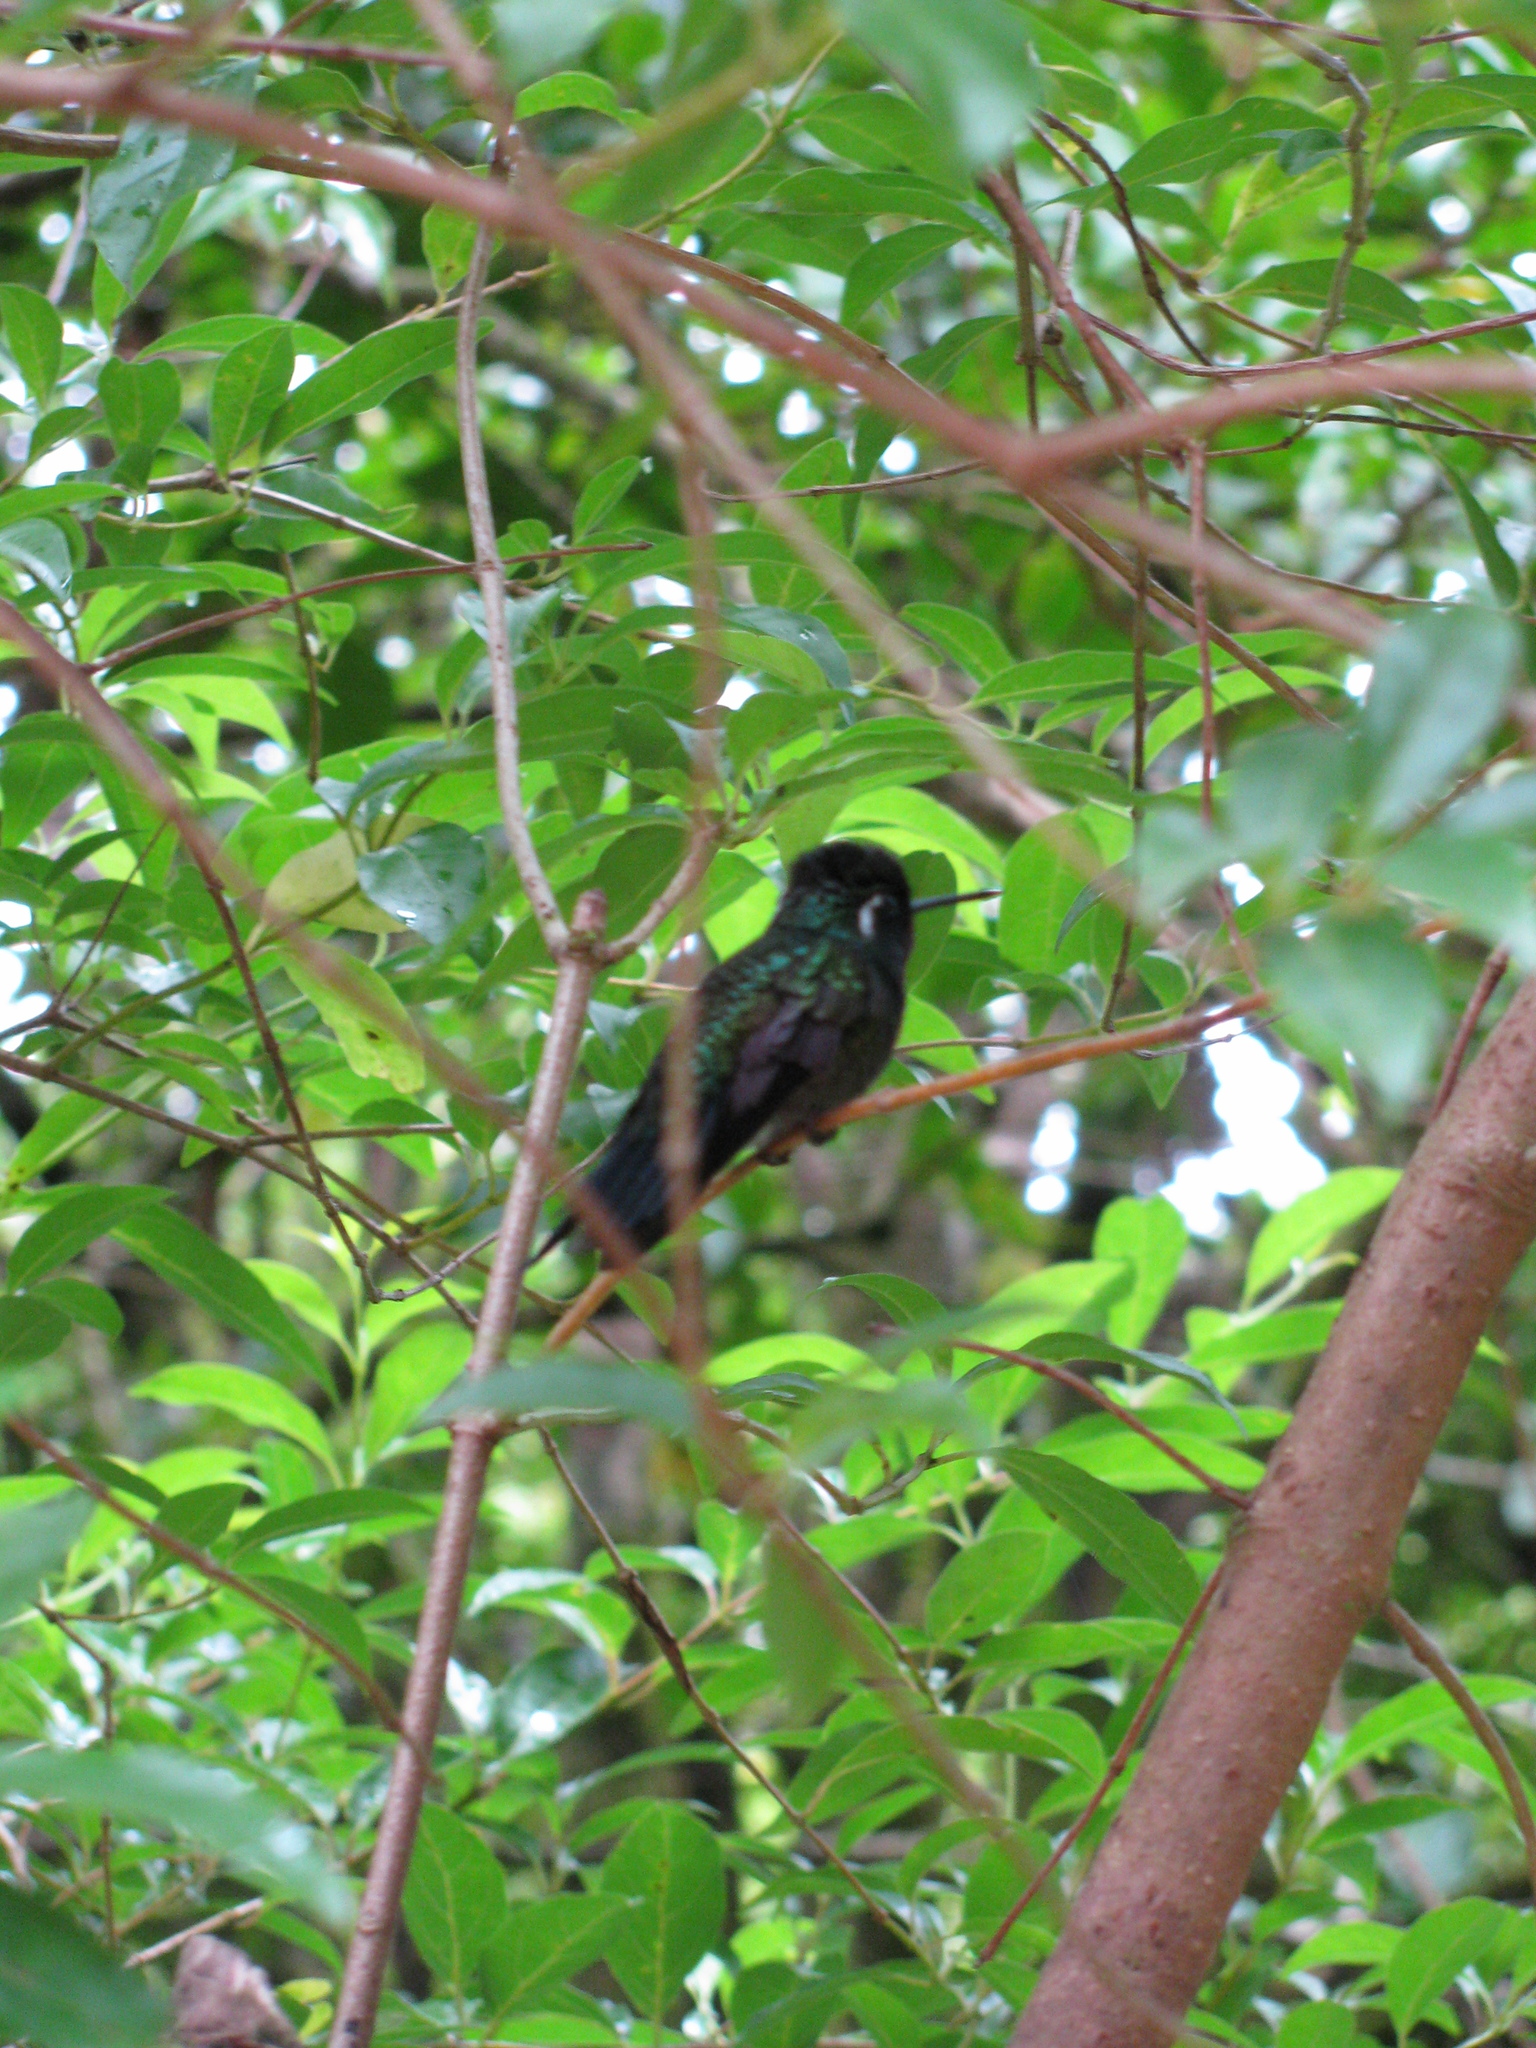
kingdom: Animalia
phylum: Chordata
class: Aves
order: Apodiformes
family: Trochilidae
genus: Lampornis
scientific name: Lampornis calolaemus
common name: Purple-throated mountain-gem
